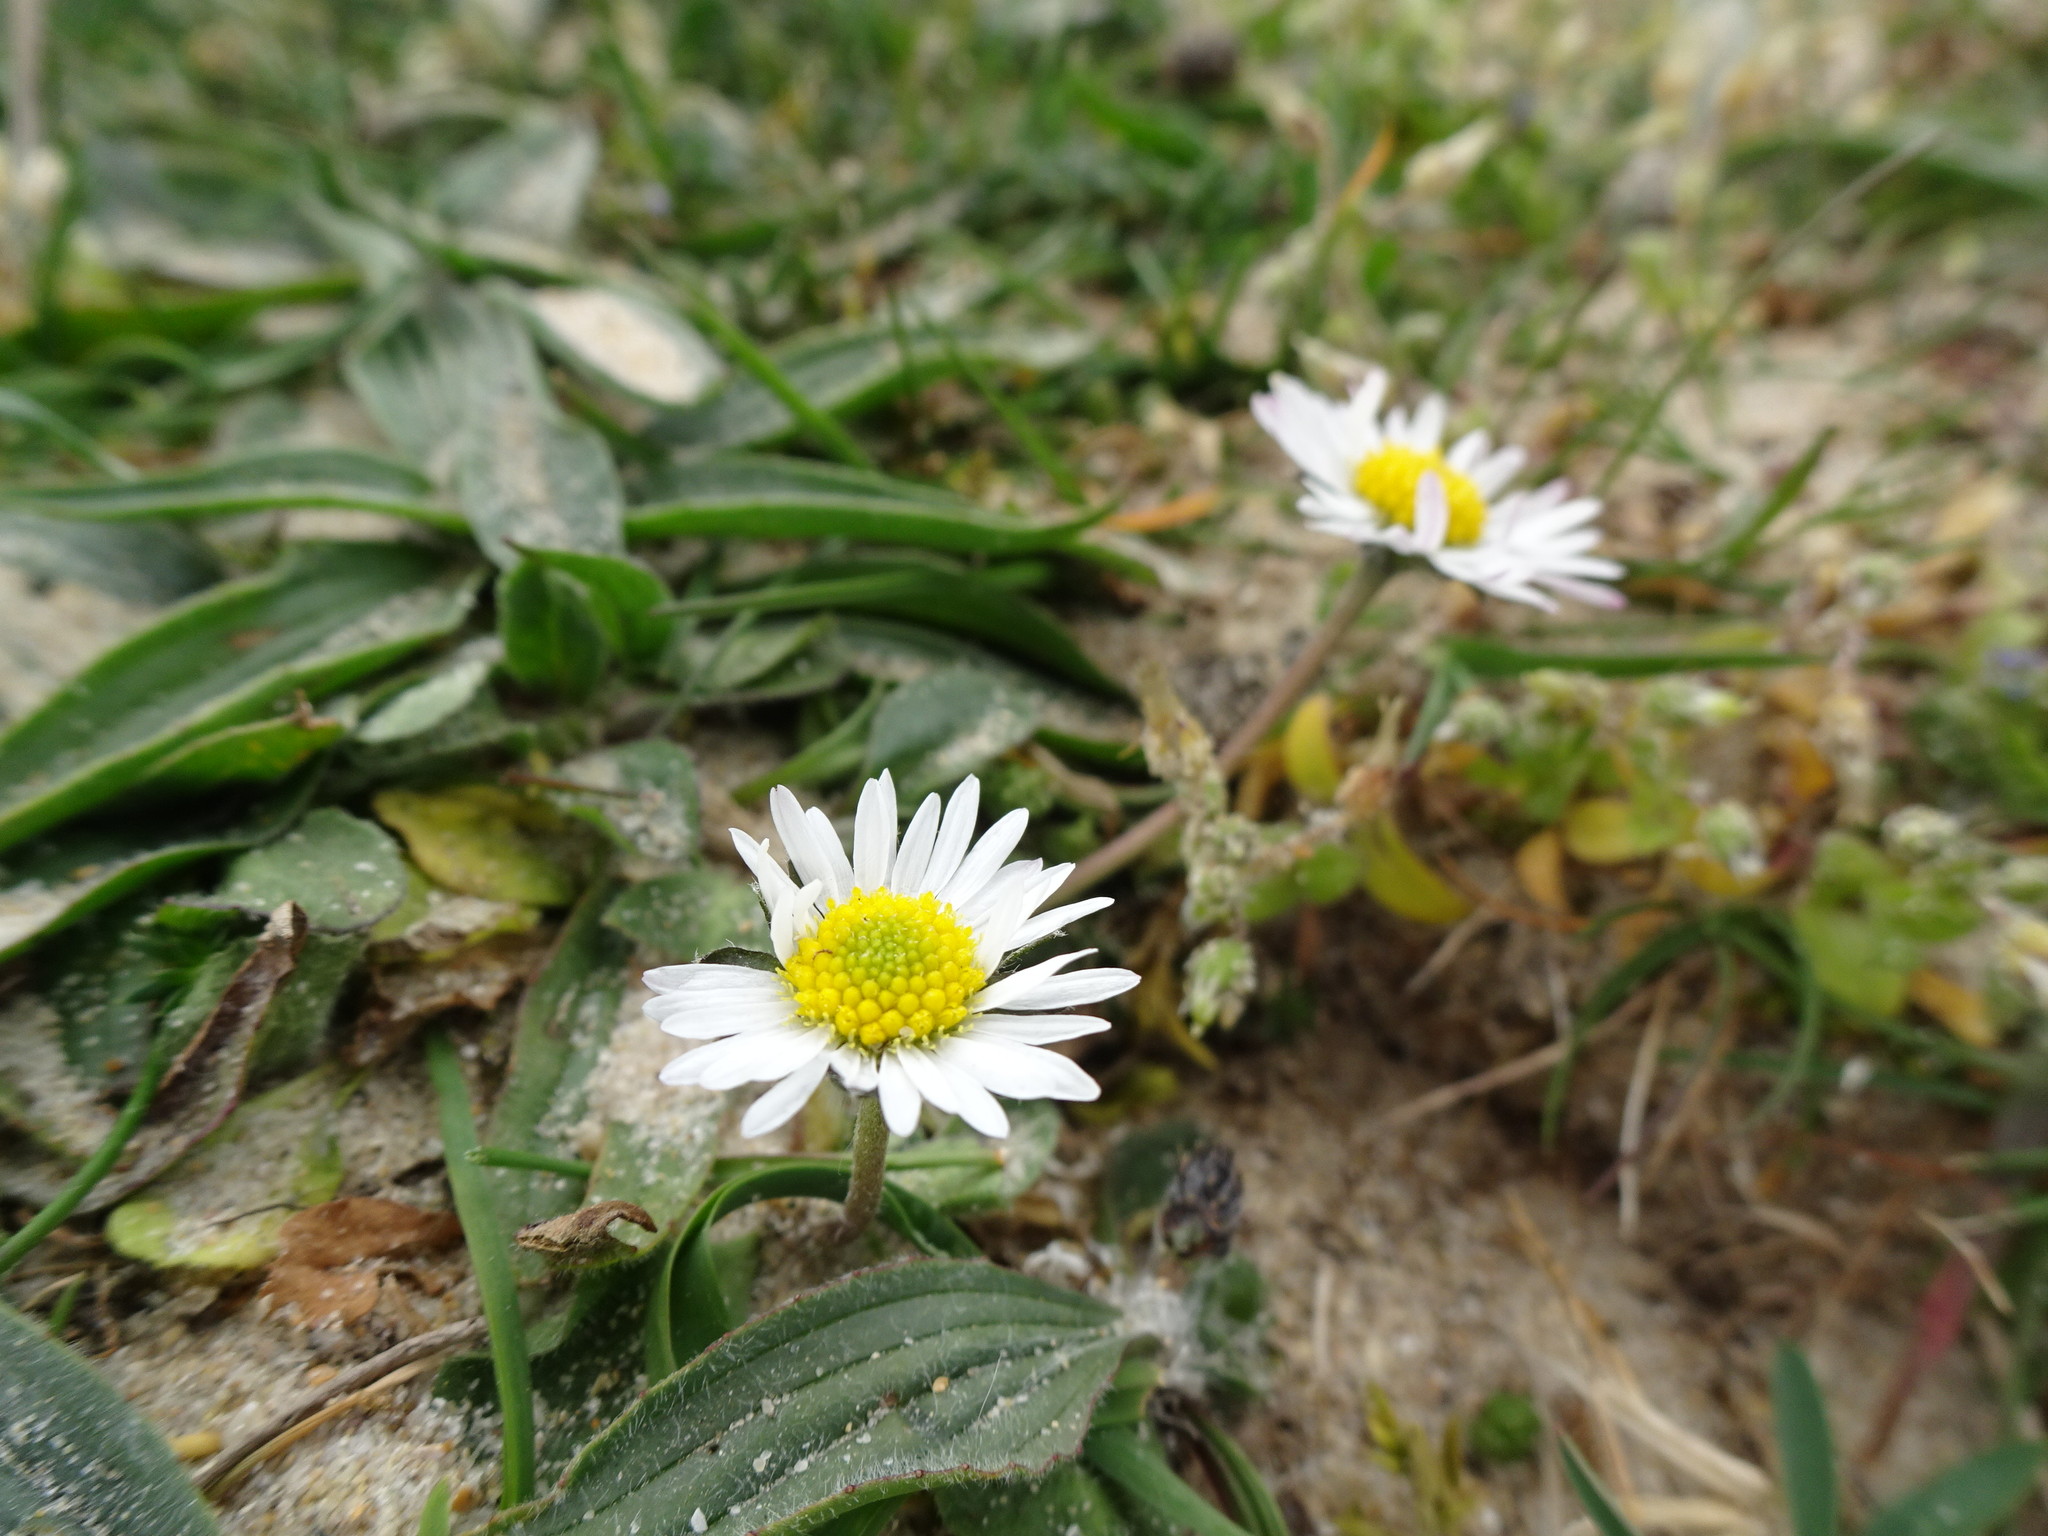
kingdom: Plantae
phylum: Tracheophyta
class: Magnoliopsida
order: Asterales
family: Asteraceae
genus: Bellis
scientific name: Bellis perennis
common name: Lawndaisy
